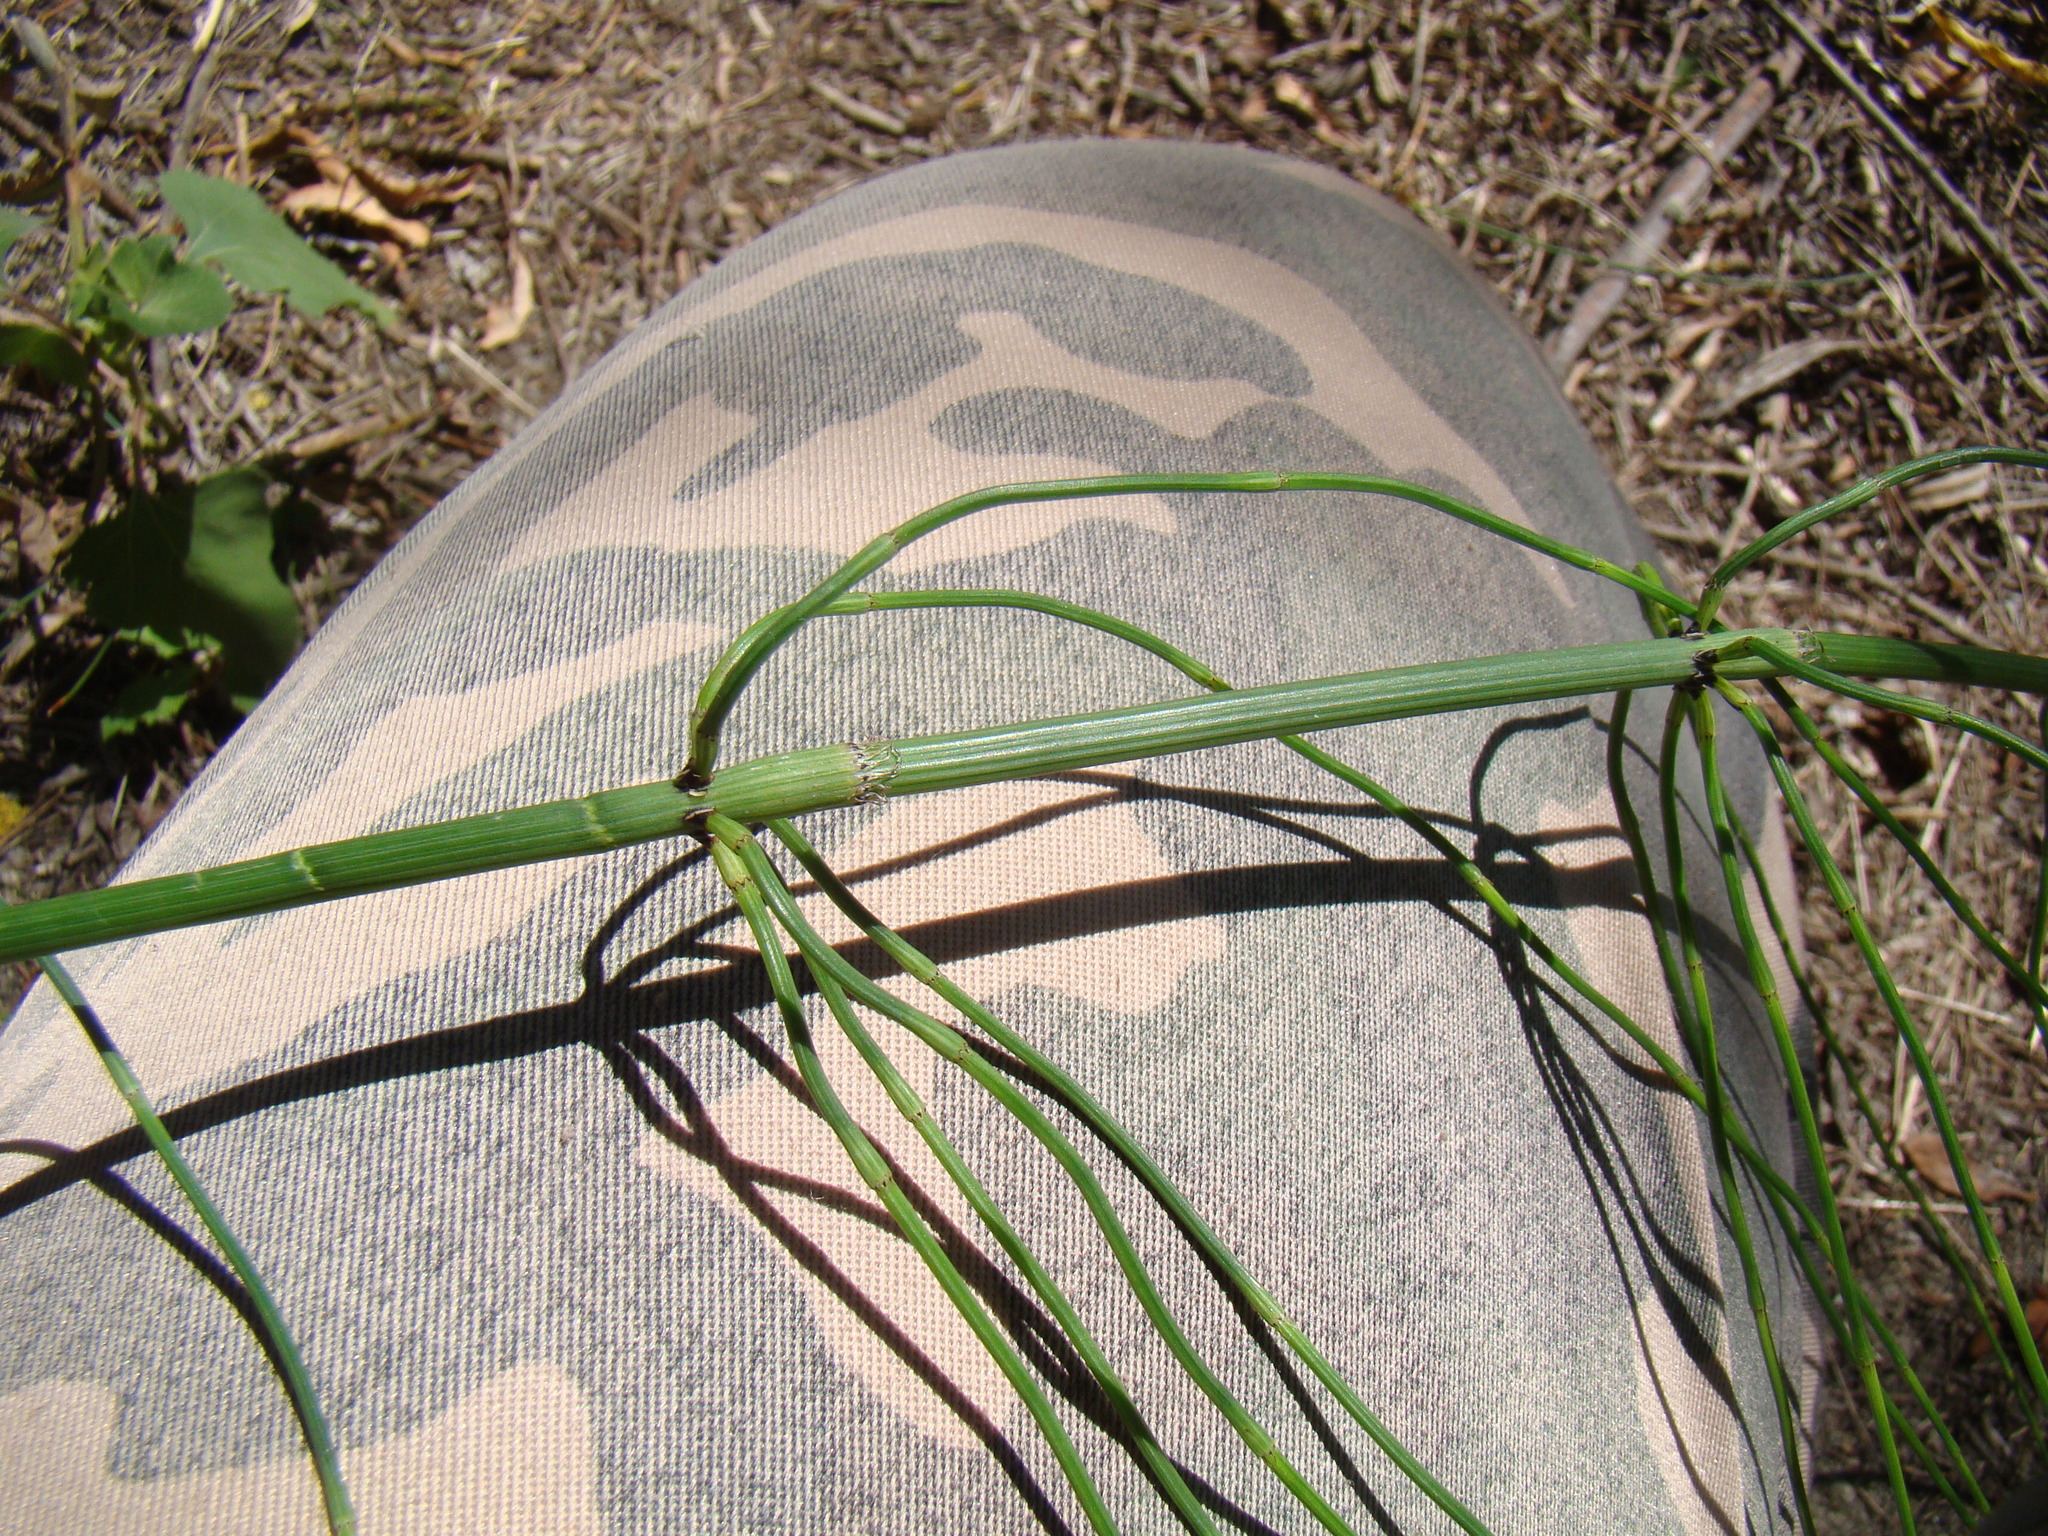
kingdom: Plantae
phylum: Tracheophyta
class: Polypodiopsida
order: Equisetales
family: Equisetaceae
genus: Equisetum
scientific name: Equisetum ramosissimum
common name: Branched horsetail
